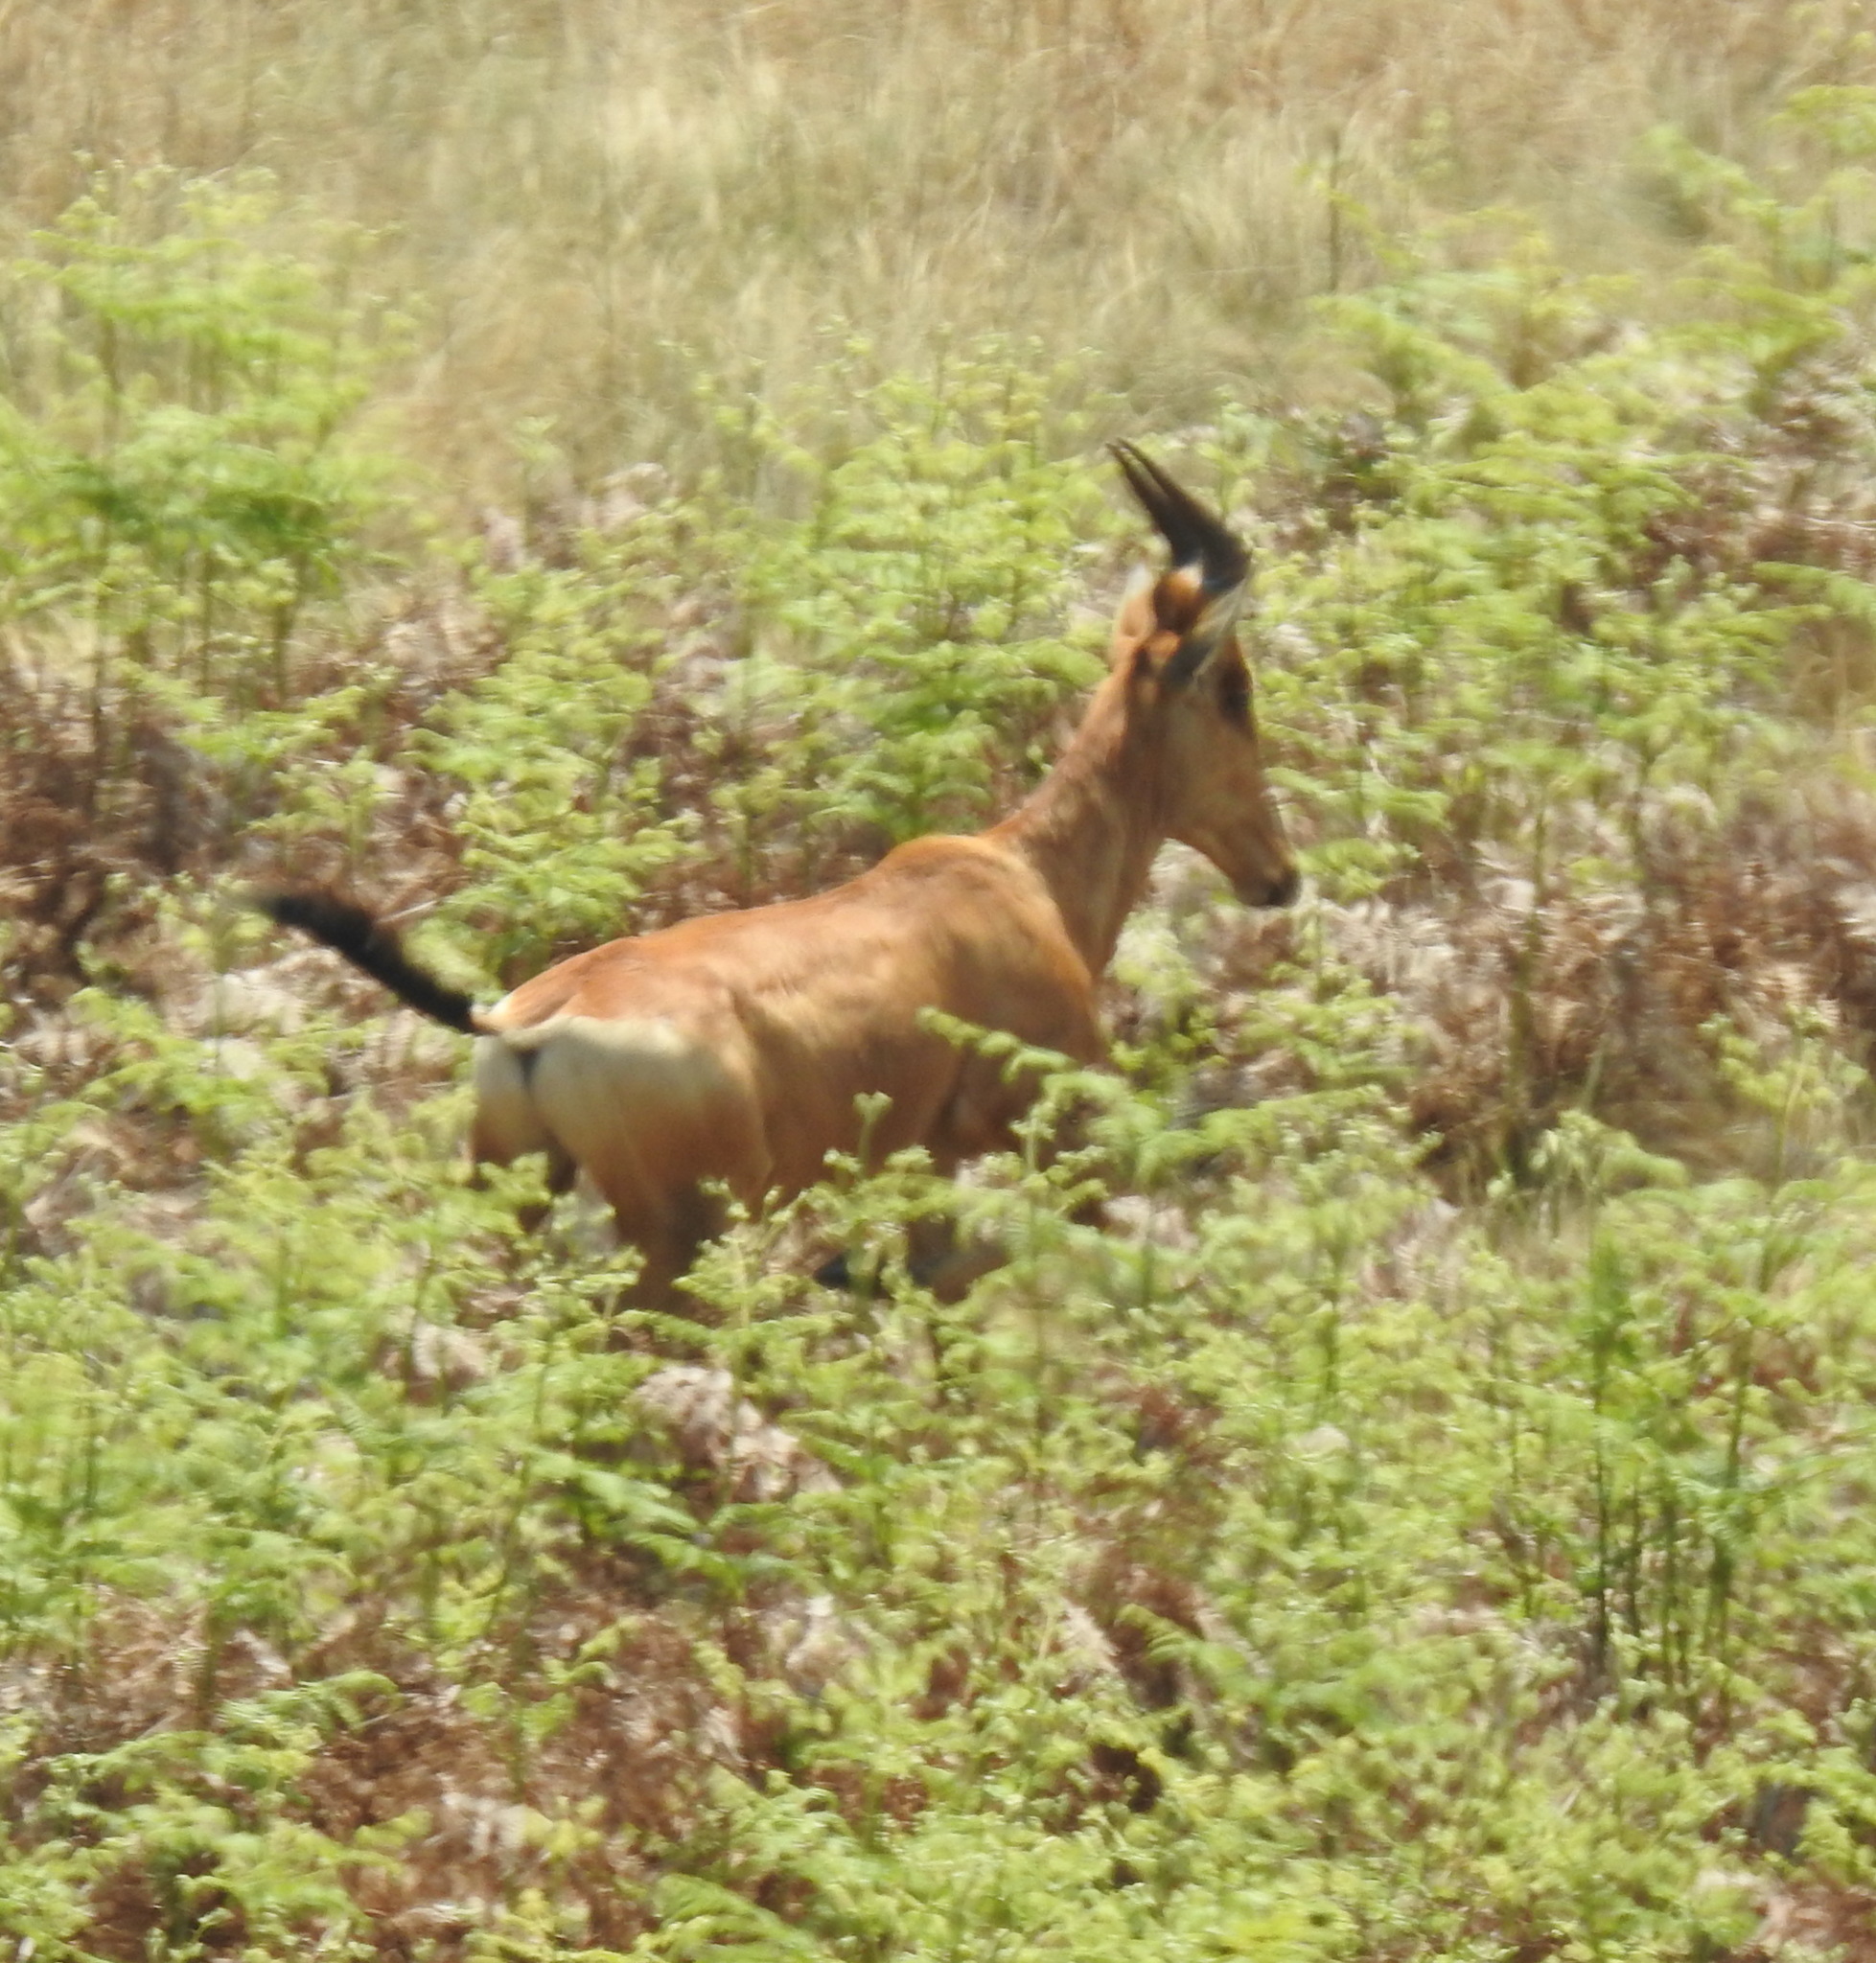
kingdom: Animalia
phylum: Chordata
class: Mammalia
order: Artiodactyla
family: Bovidae
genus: Alcelaphus
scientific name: Alcelaphus caama
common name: Red hartebeest
